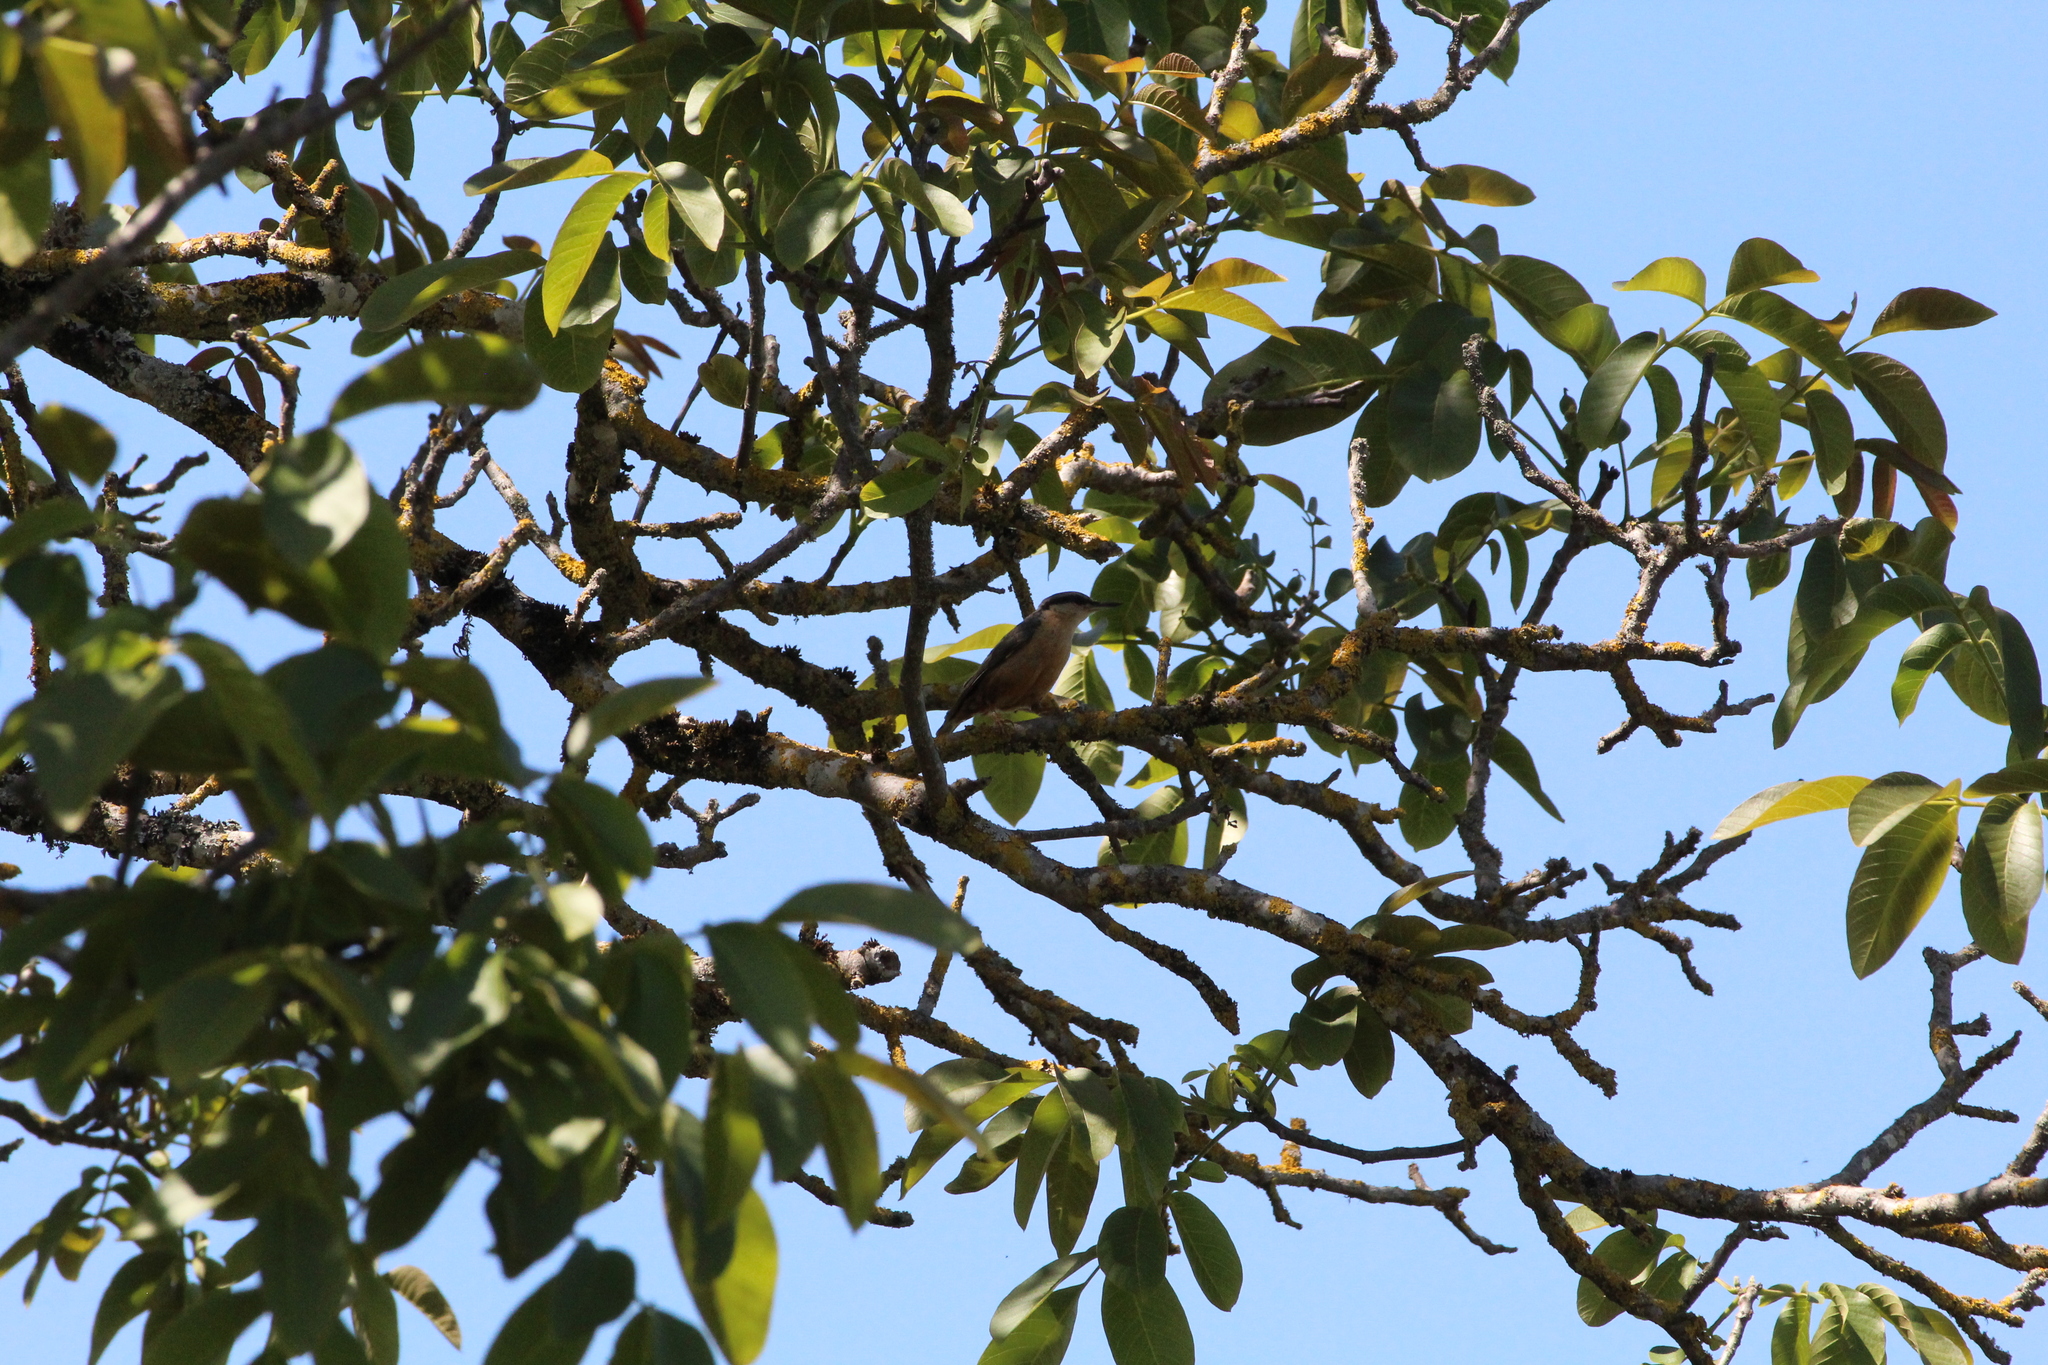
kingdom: Animalia
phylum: Chordata
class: Aves
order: Passeriformes
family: Sittidae
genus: Sitta
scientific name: Sitta europaea
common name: Eurasian nuthatch
